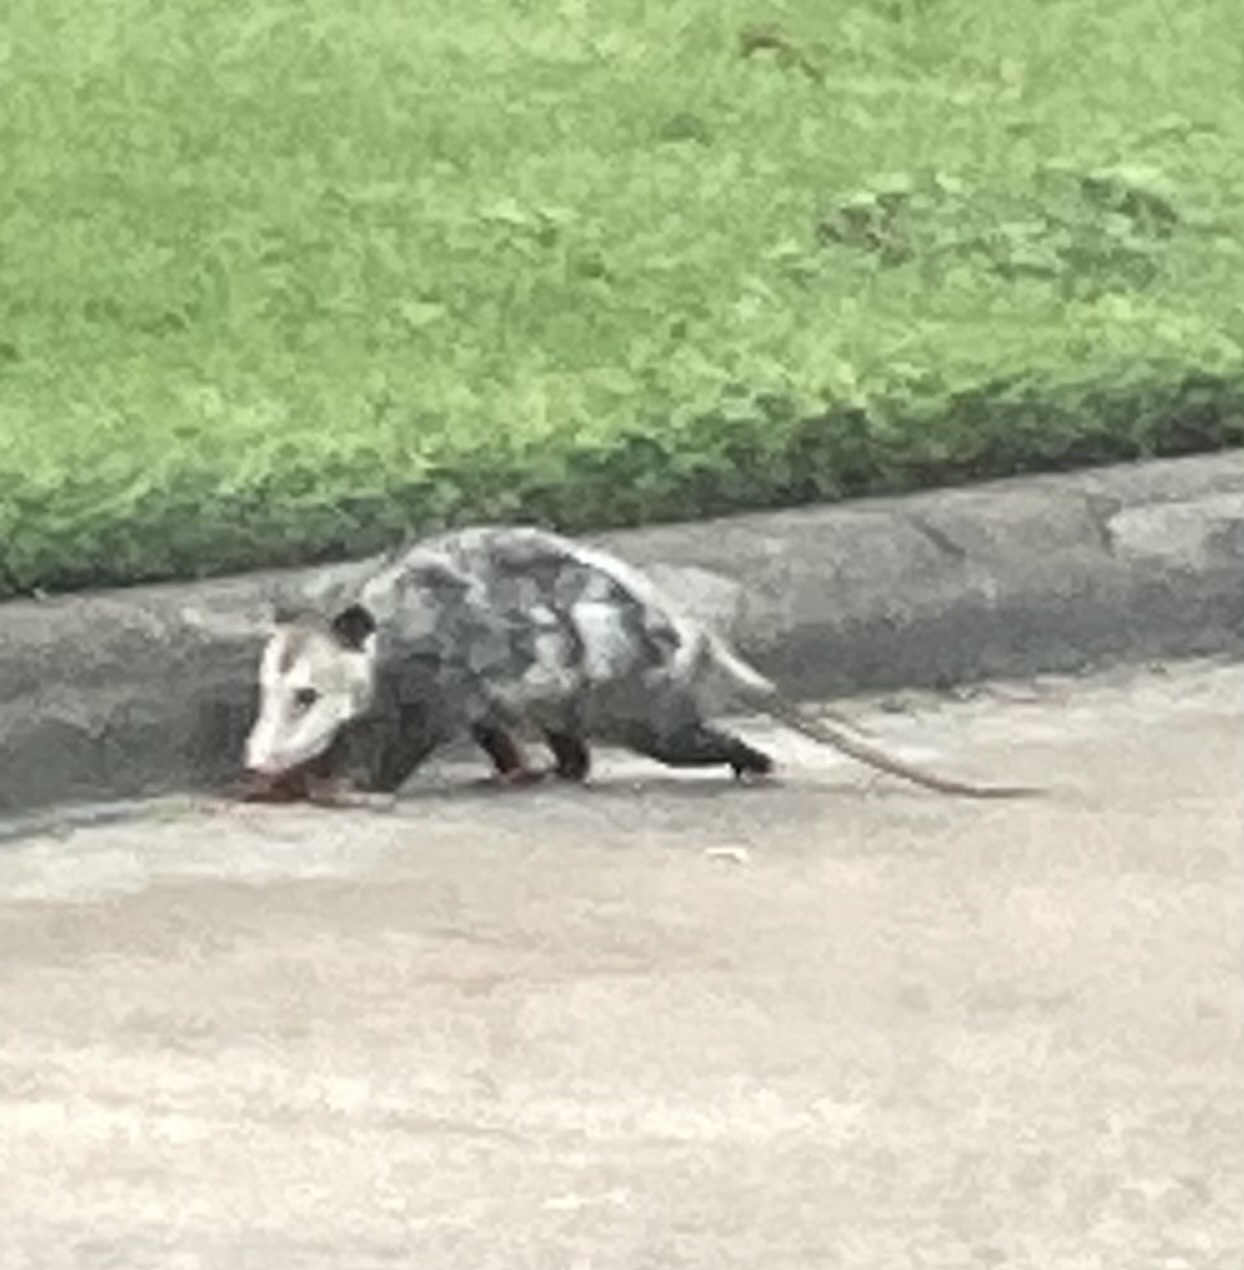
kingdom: Animalia
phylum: Chordata
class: Mammalia
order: Didelphimorphia
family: Didelphidae
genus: Didelphis
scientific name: Didelphis virginiana
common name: Virginia opossum
